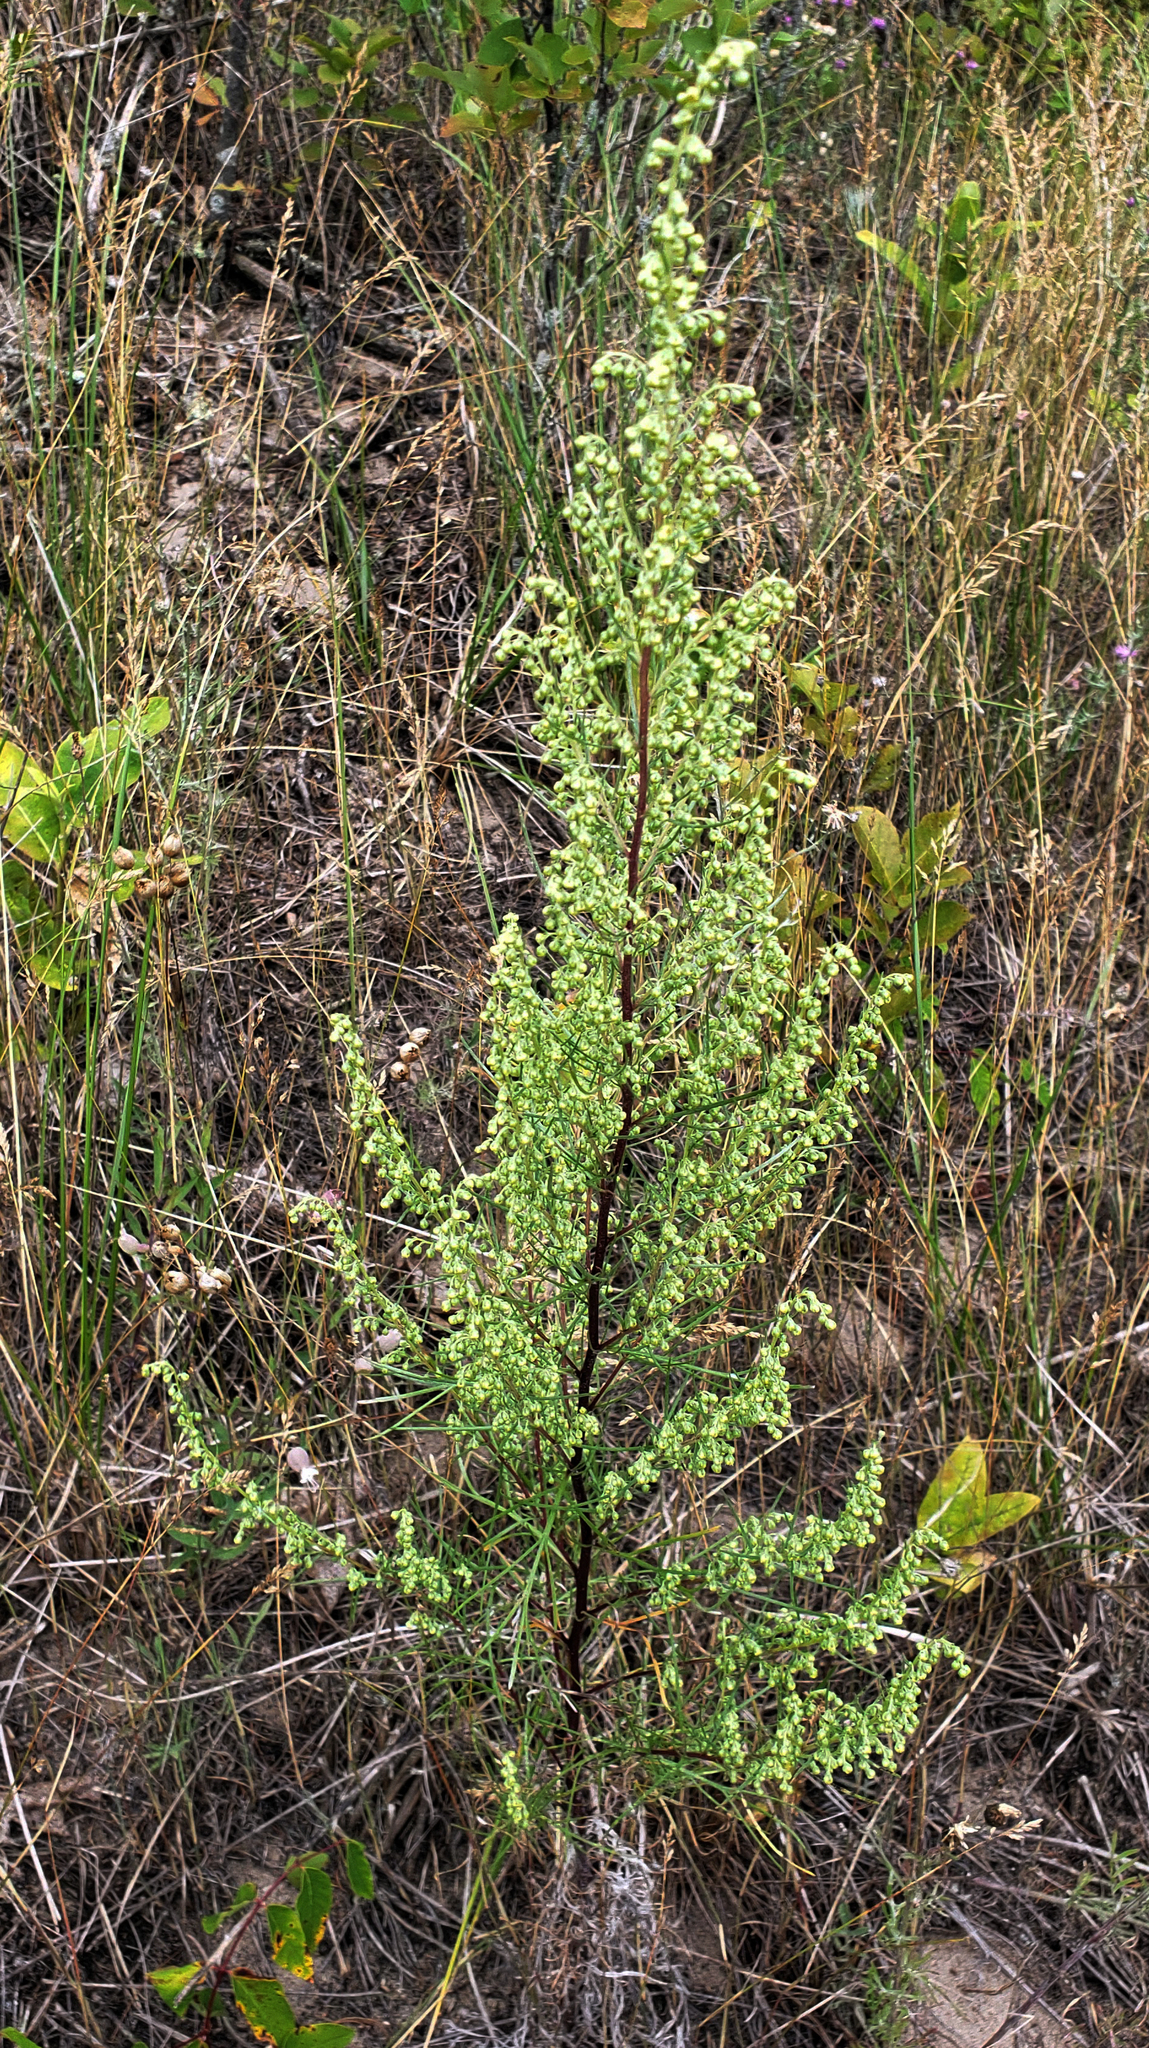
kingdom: Plantae
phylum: Tracheophyta
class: Magnoliopsida
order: Asterales
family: Asteraceae
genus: Artemisia
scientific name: Artemisia campestris
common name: Field wormwood
